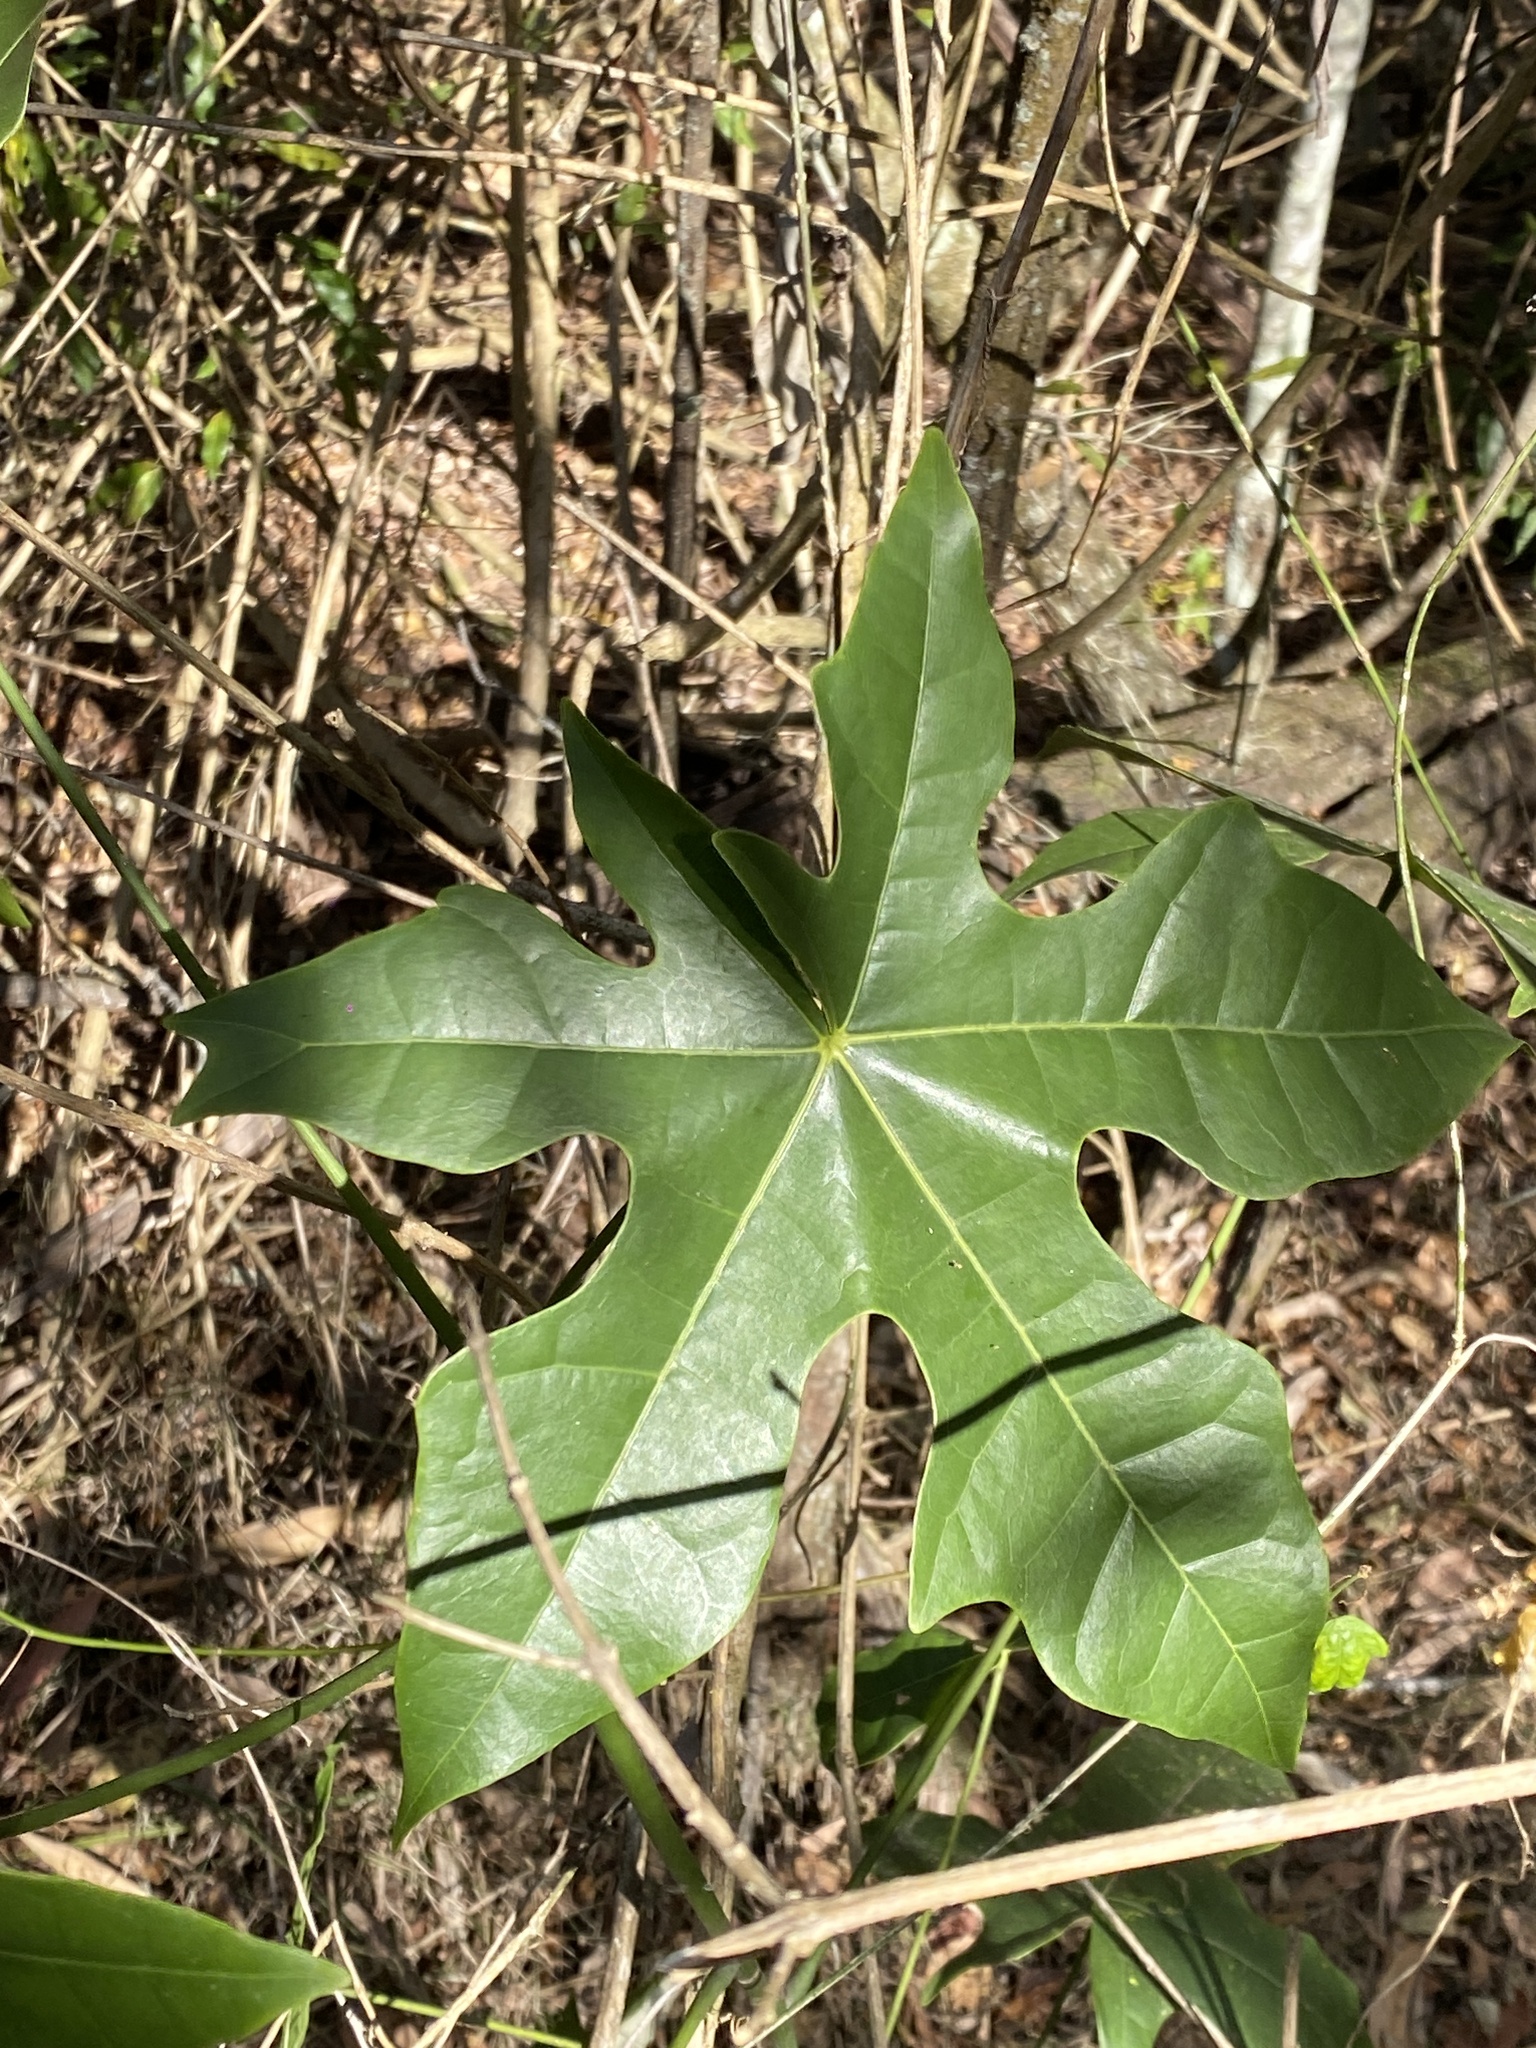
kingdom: Plantae
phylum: Tracheophyta
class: Magnoliopsida
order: Malvales
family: Malvaceae
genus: Brachychiton
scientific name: Brachychiton acerifolius
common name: Illawarra flame tree
